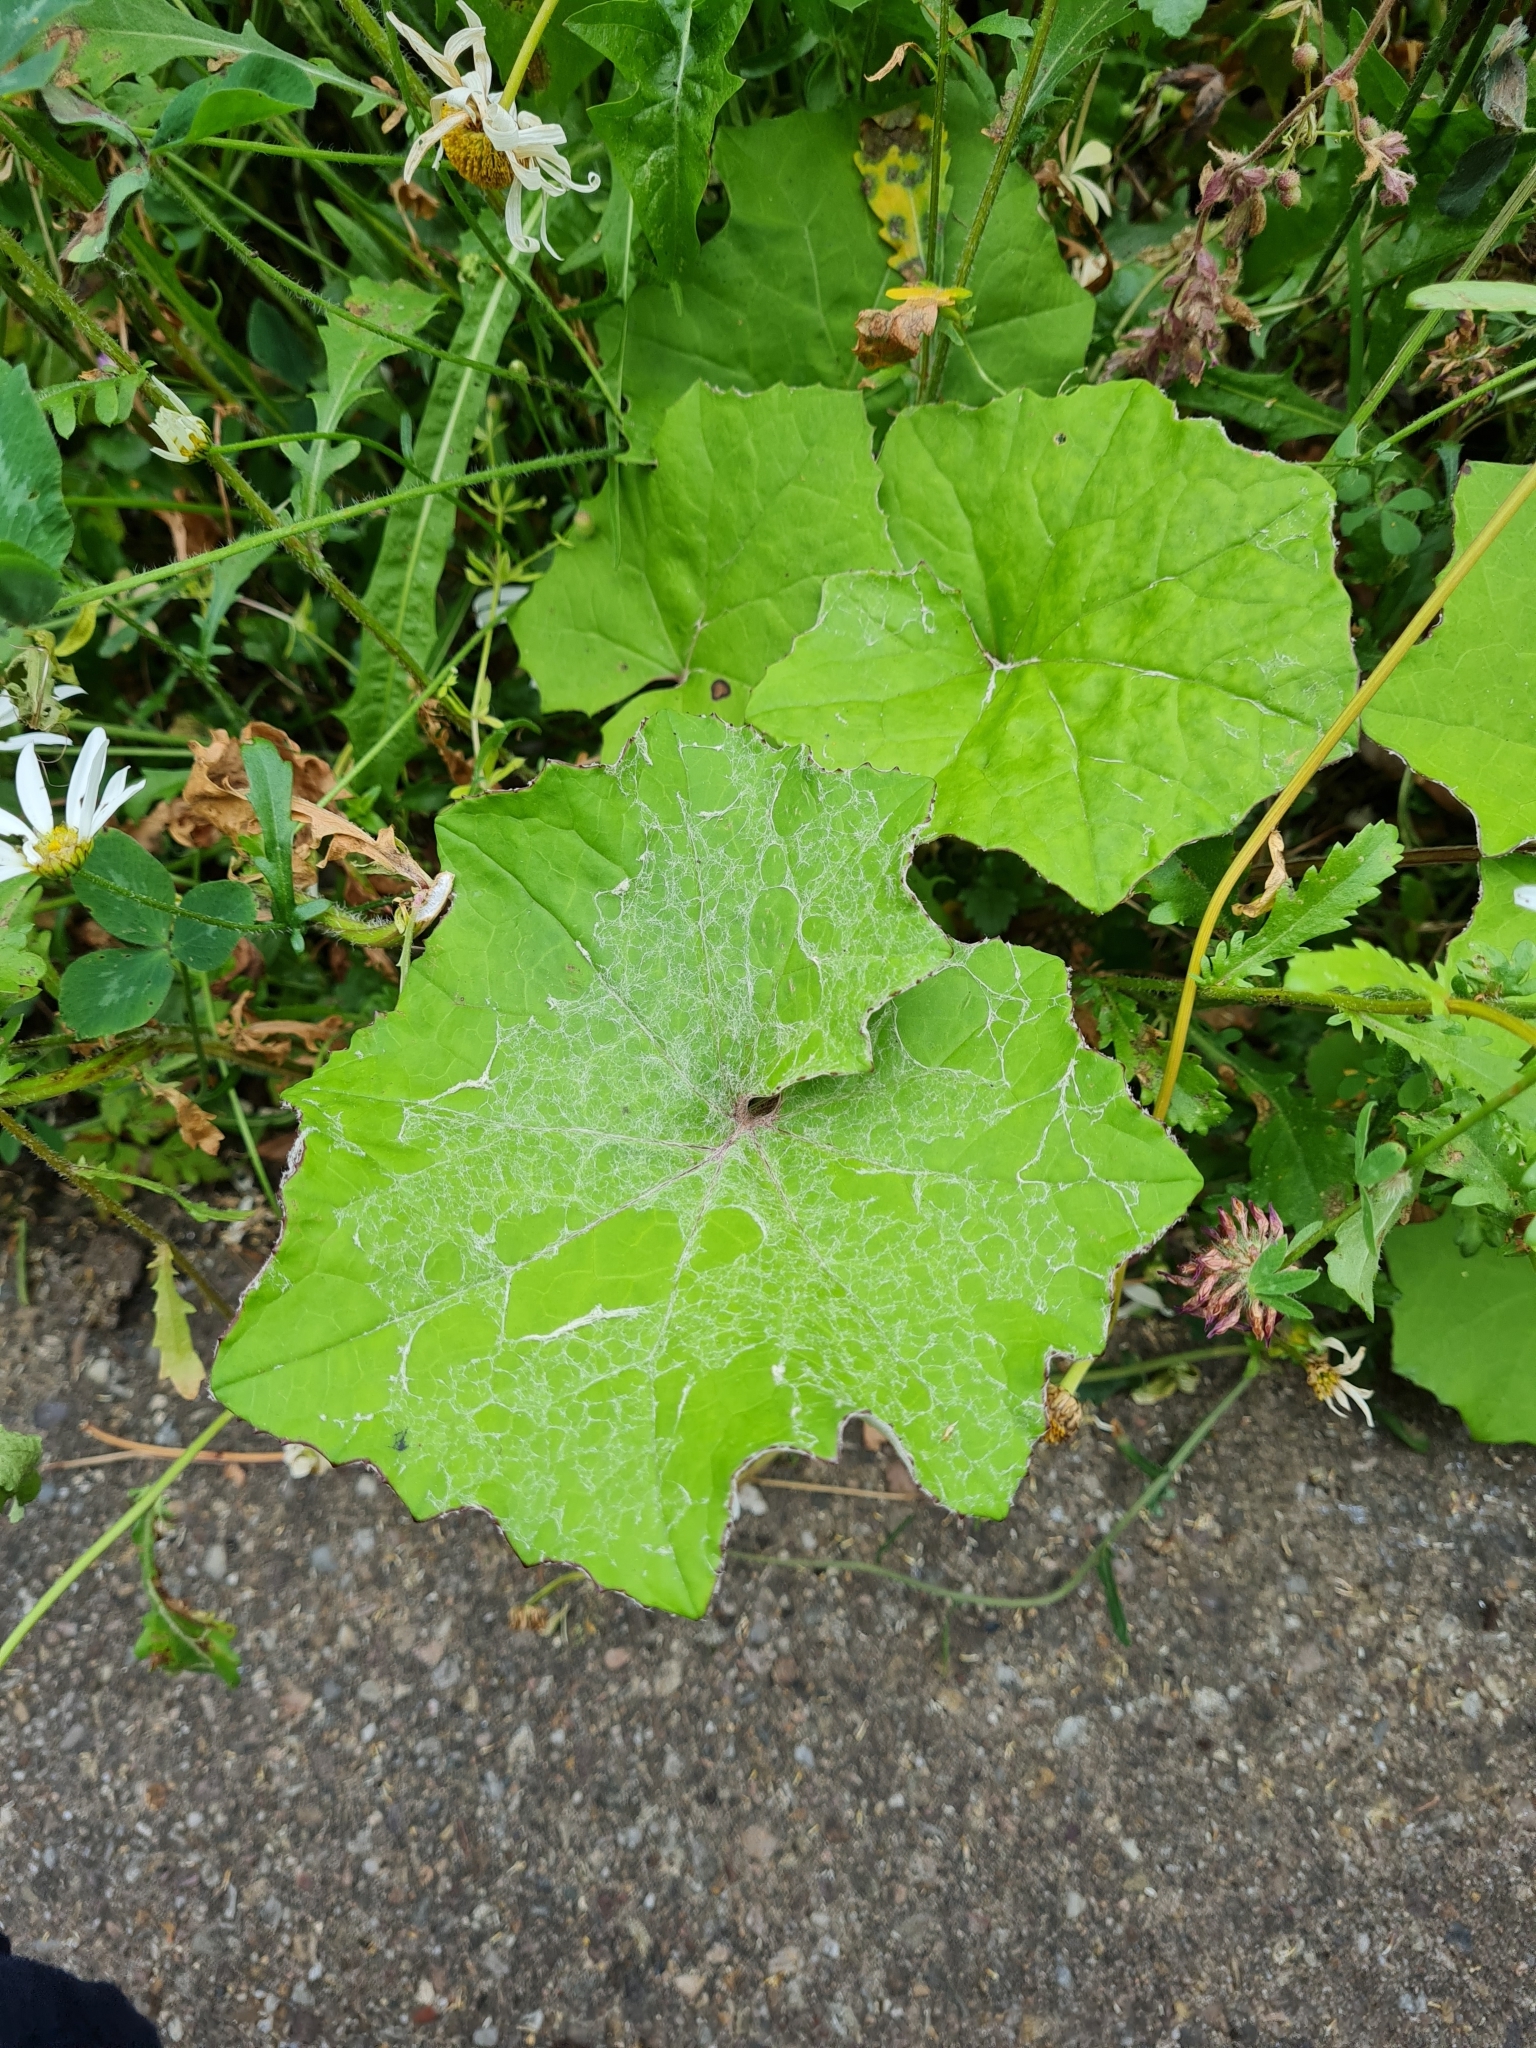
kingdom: Plantae
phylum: Tracheophyta
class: Magnoliopsida
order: Asterales
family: Asteraceae
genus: Tussilago
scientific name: Tussilago farfara
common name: Coltsfoot
